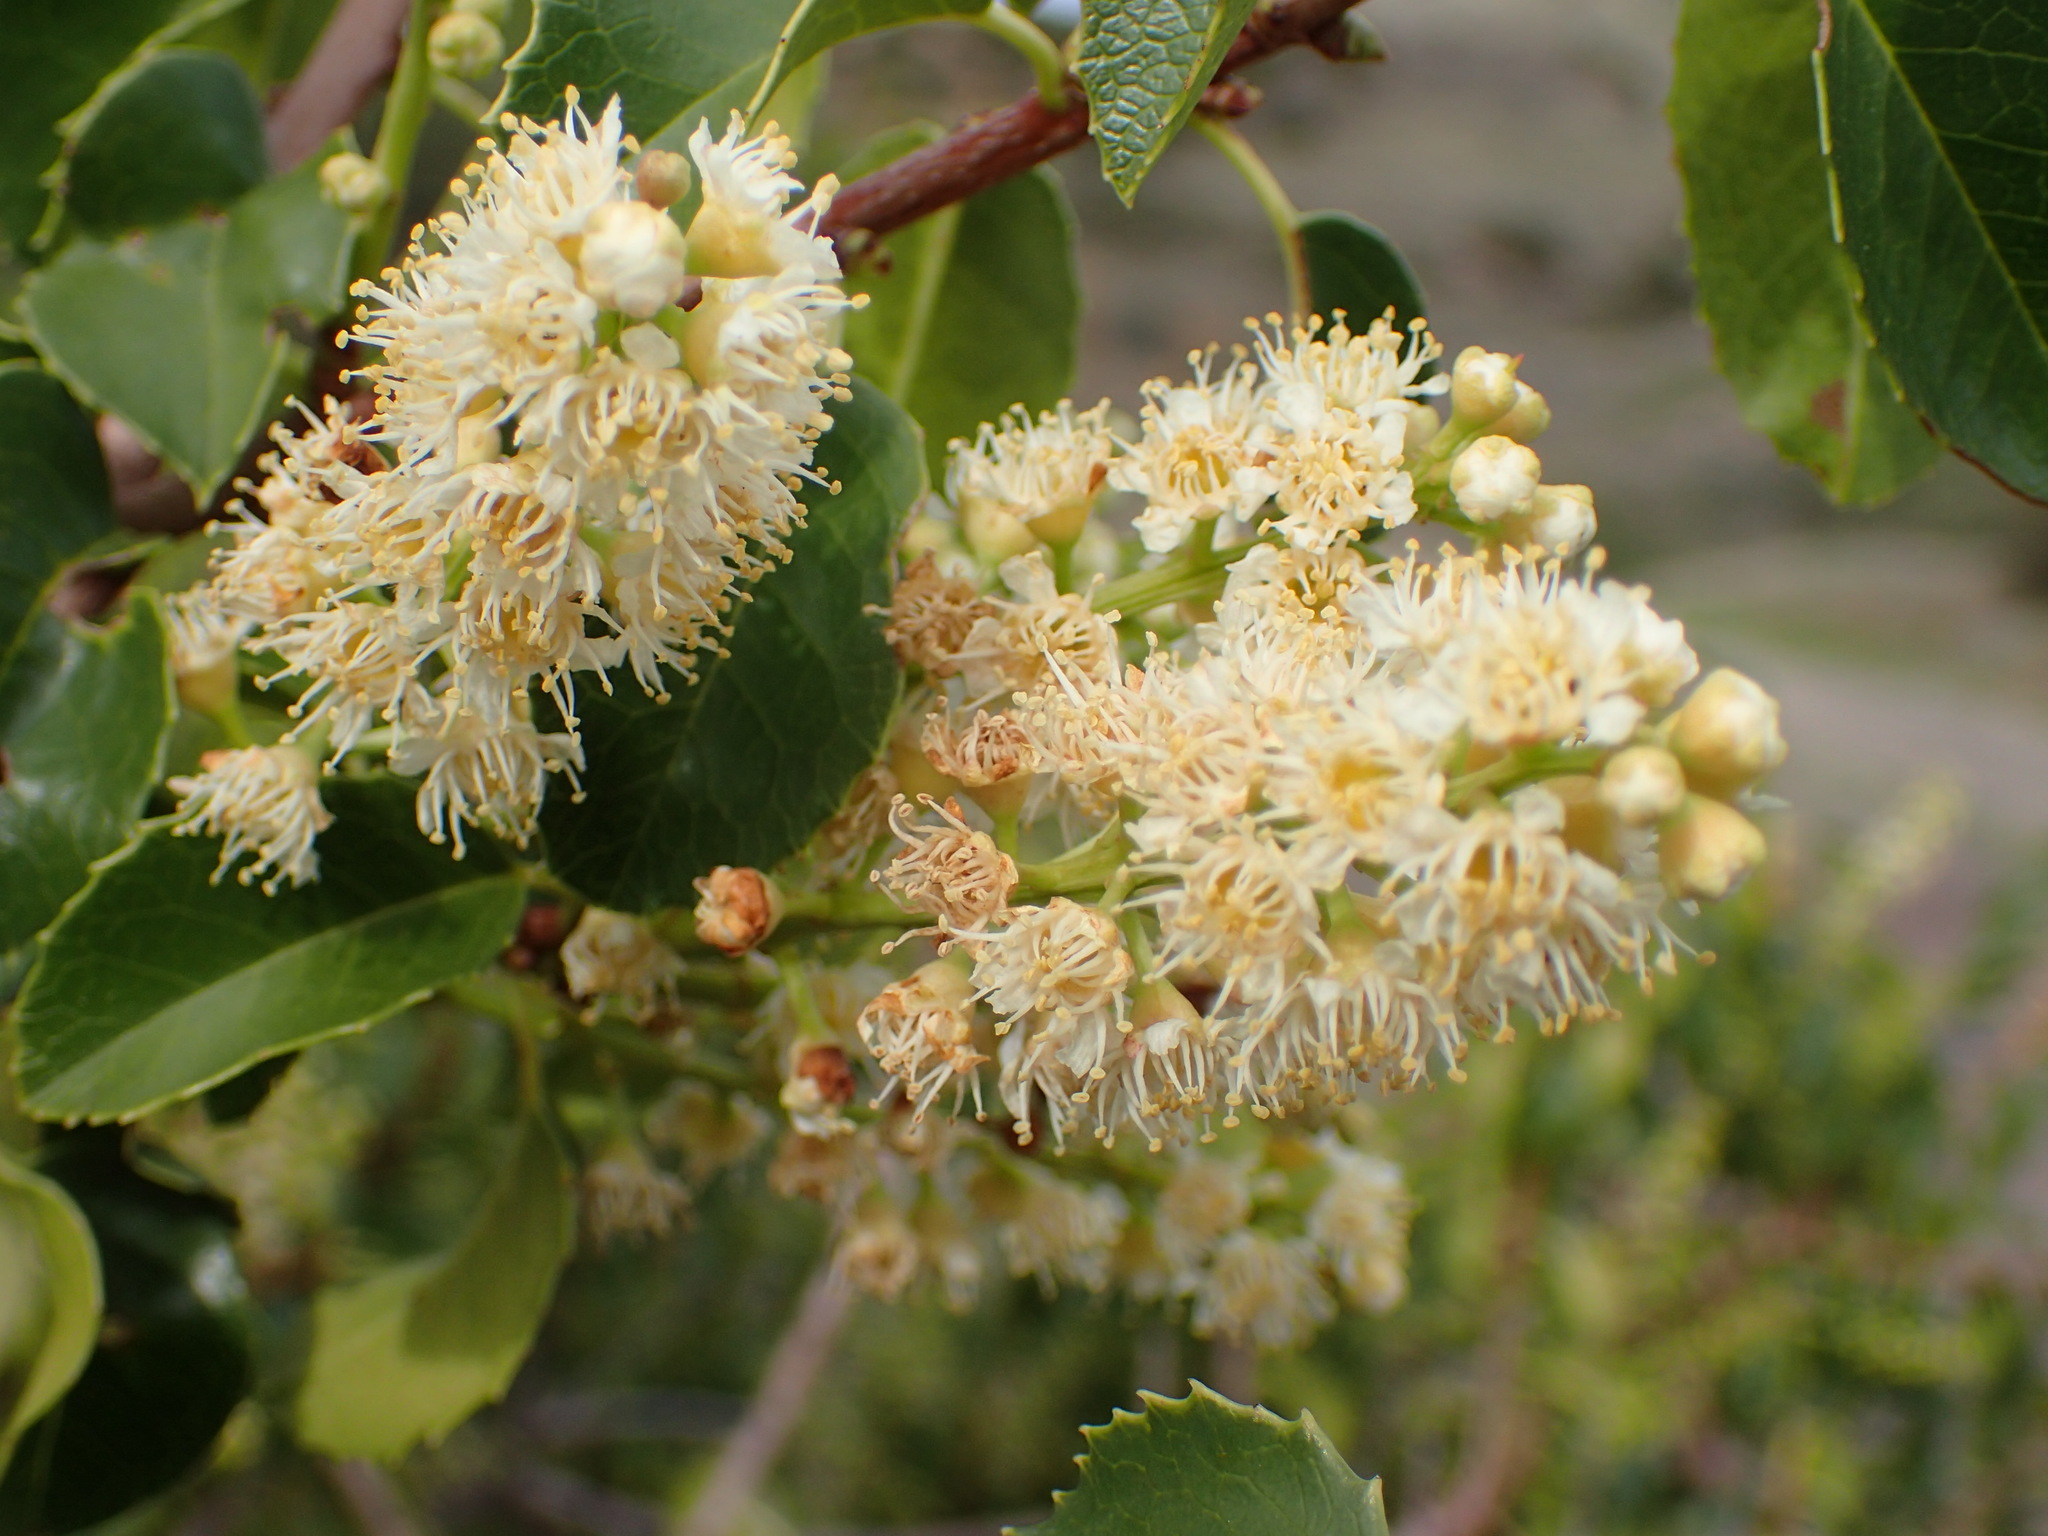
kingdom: Plantae
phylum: Tracheophyta
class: Magnoliopsida
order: Rosales
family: Rosaceae
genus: Prunus
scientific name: Prunus ilicifolia
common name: Hollyleaf cherry
